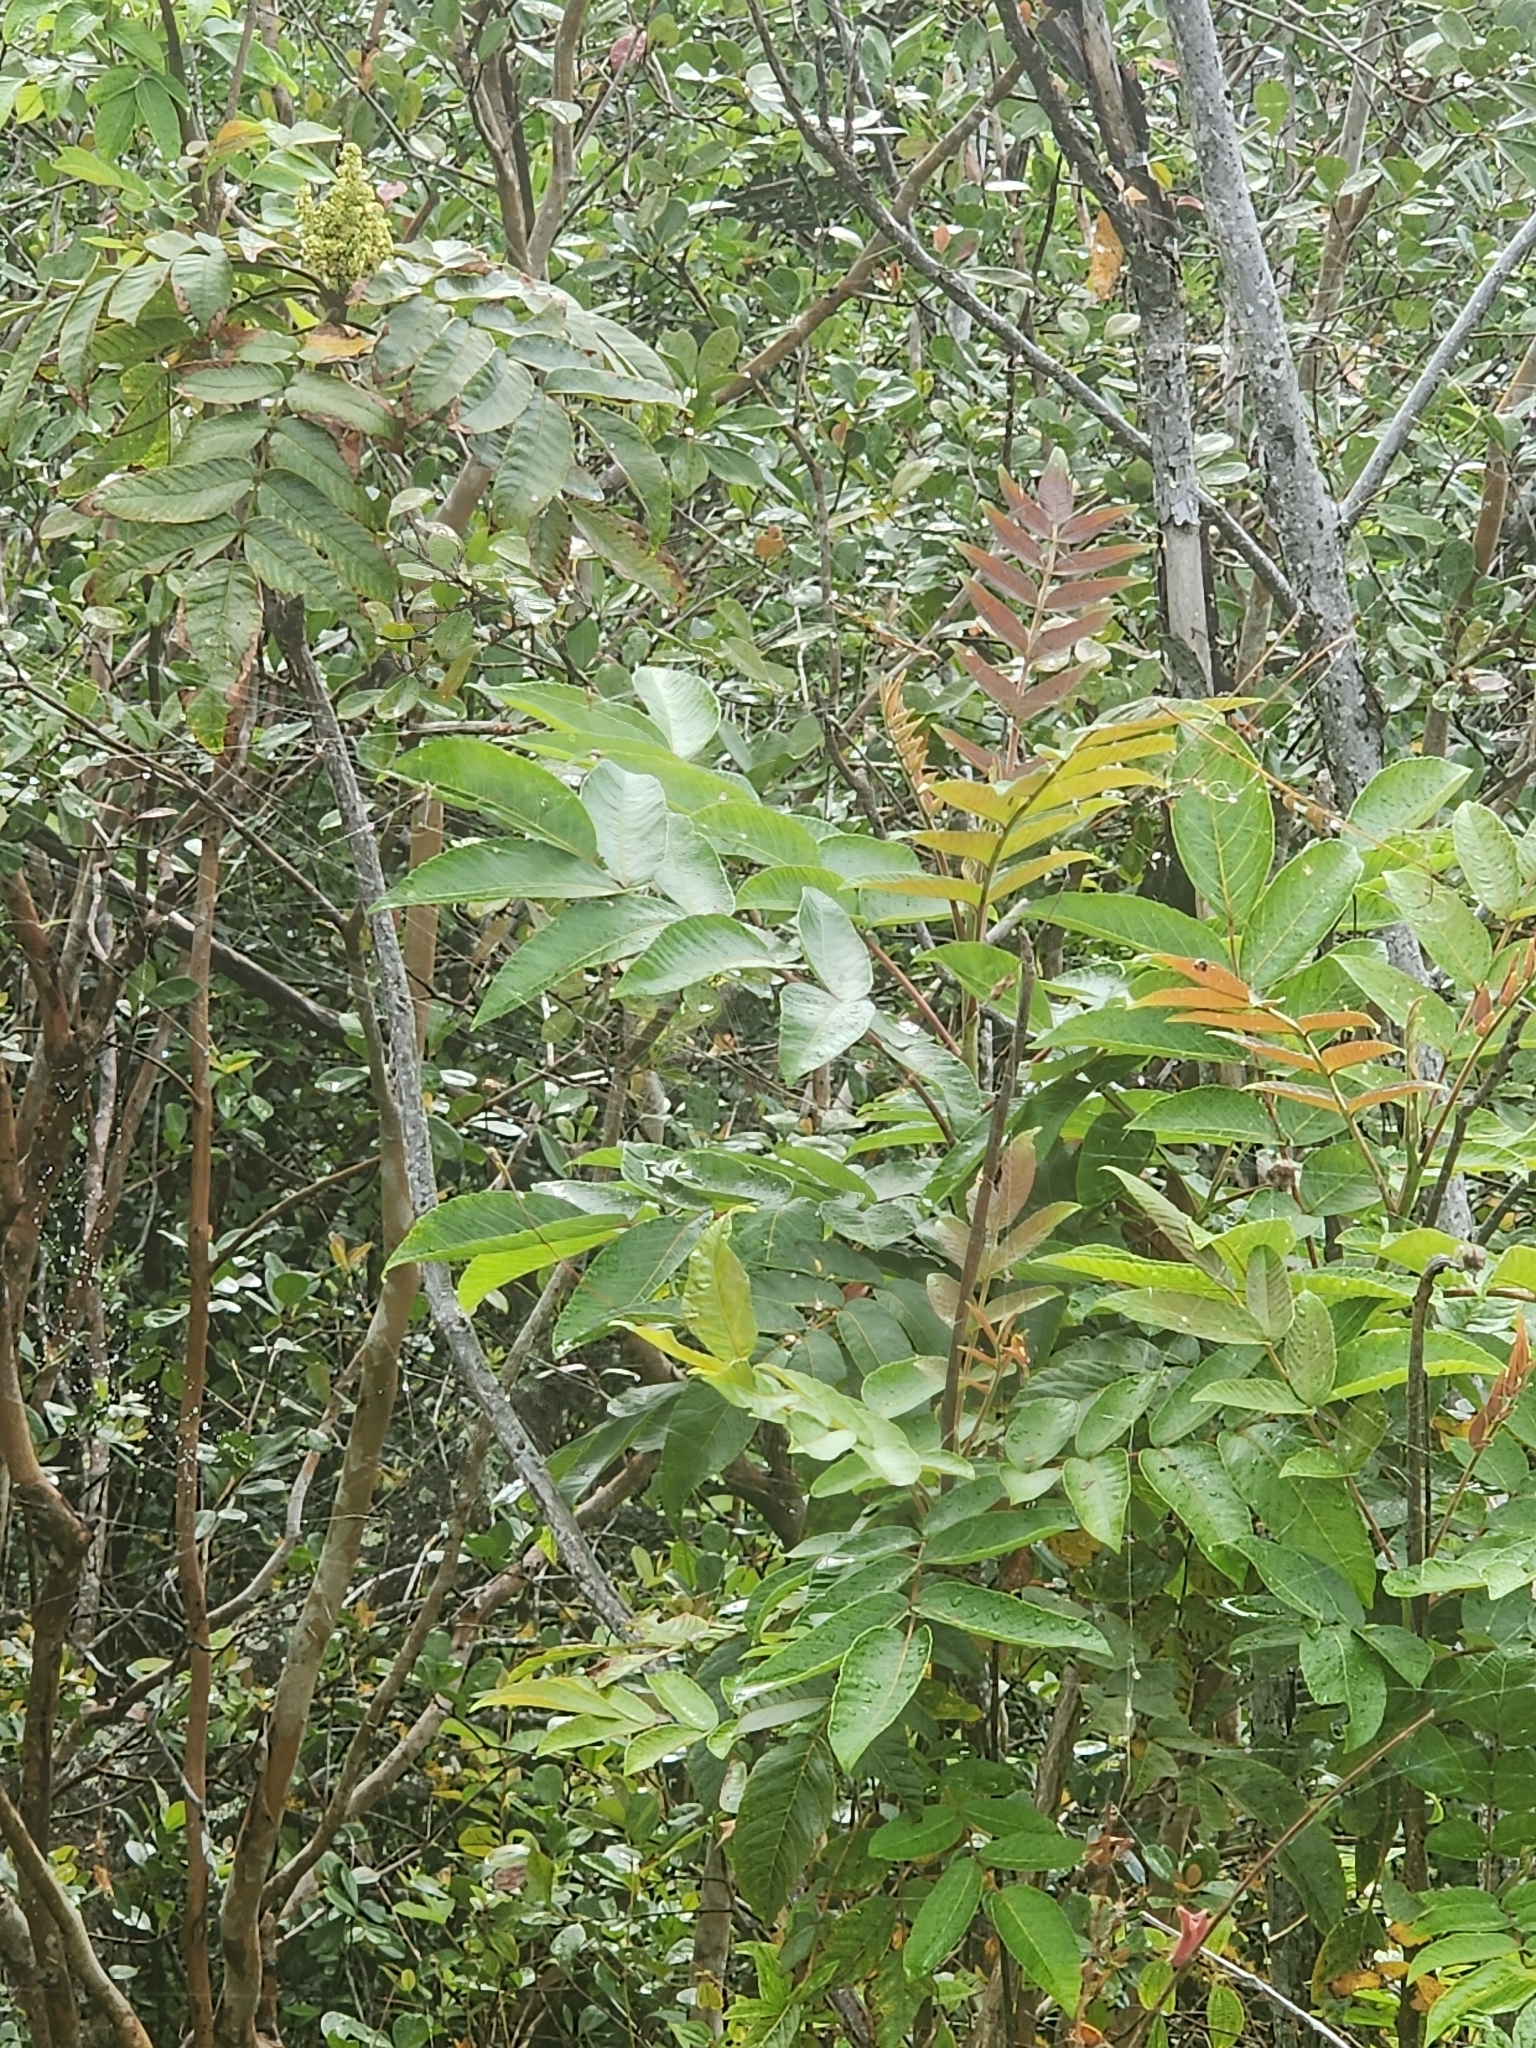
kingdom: Plantae
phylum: Tracheophyta
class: Magnoliopsida
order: Sapindales
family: Anacardiaceae
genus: Rhus
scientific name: Rhus sandwicensis
